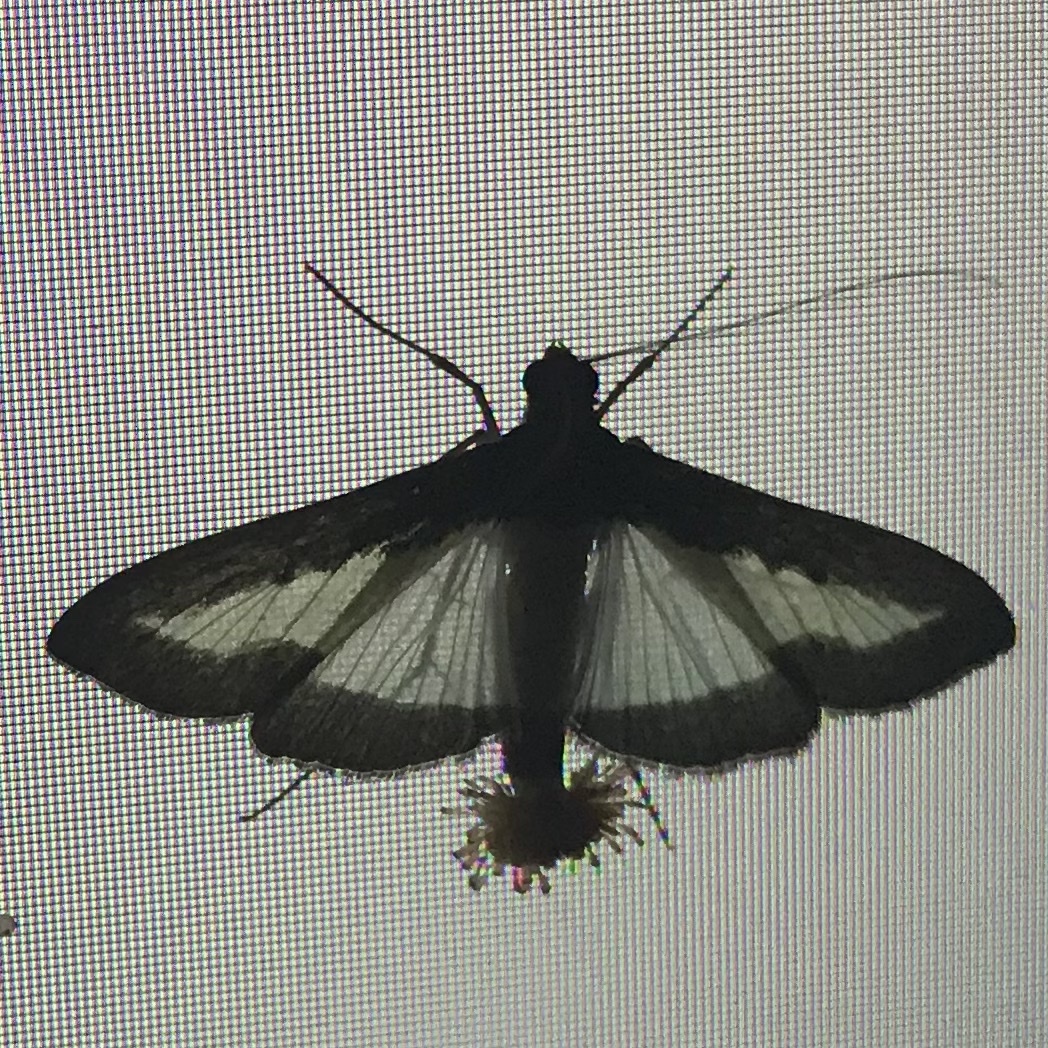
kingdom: Animalia
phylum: Arthropoda
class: Insecta
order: Lepidoptera
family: Crambidae
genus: Diaphania
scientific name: Diaphania indica
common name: Cucumber moth
